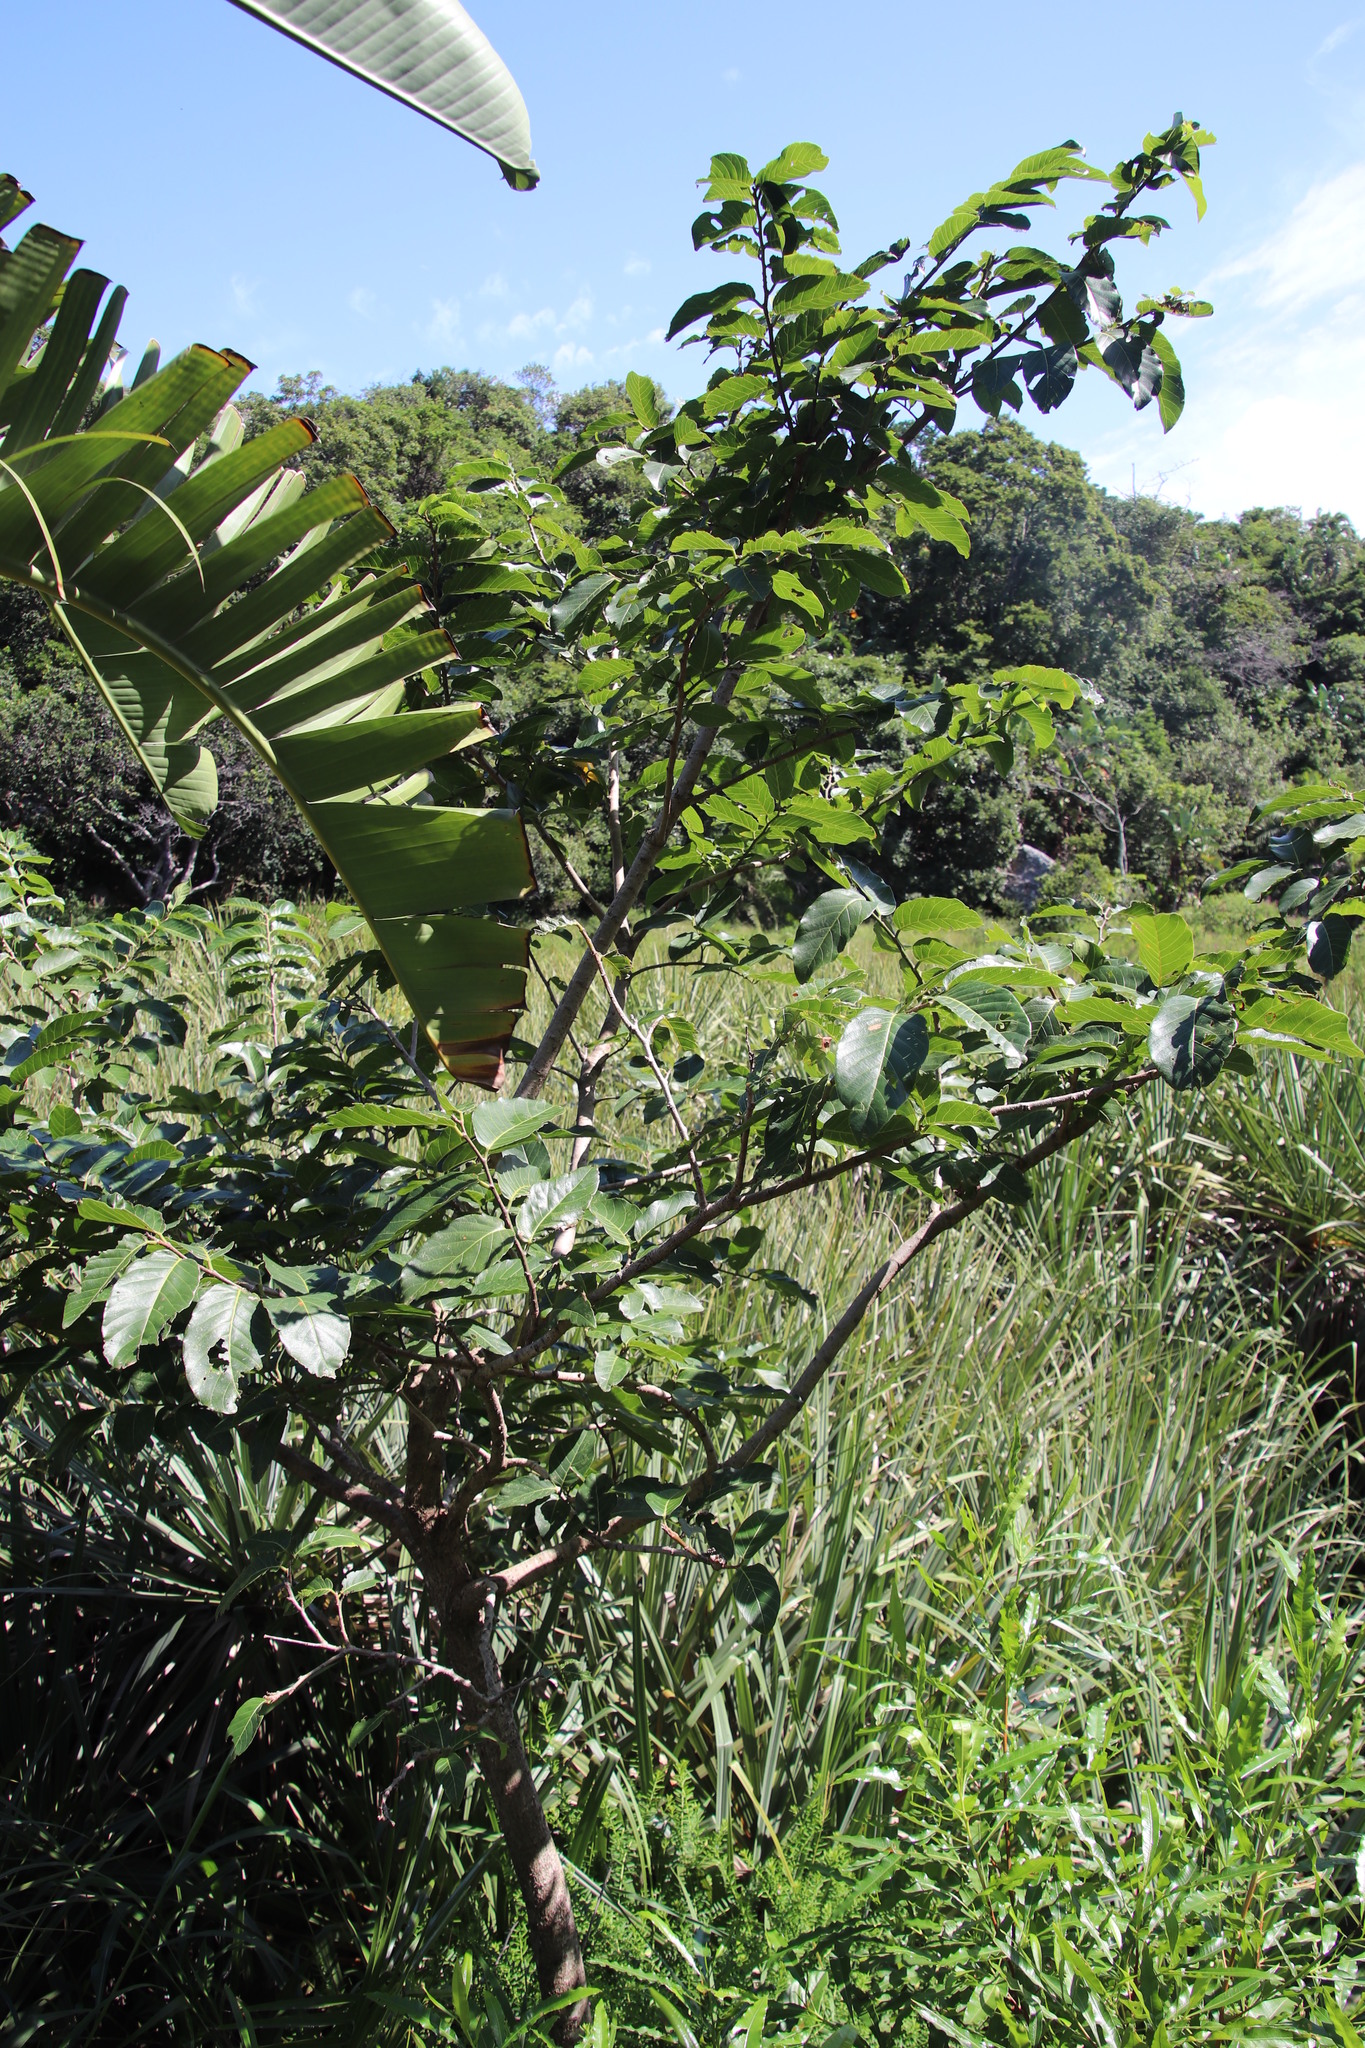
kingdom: Plantae
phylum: Tracheophyta
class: Magnoliopsida
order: Malpighiales
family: Phyllanthaceae
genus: Bridelia
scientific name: Bridelia micrantha
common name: Bridelia
